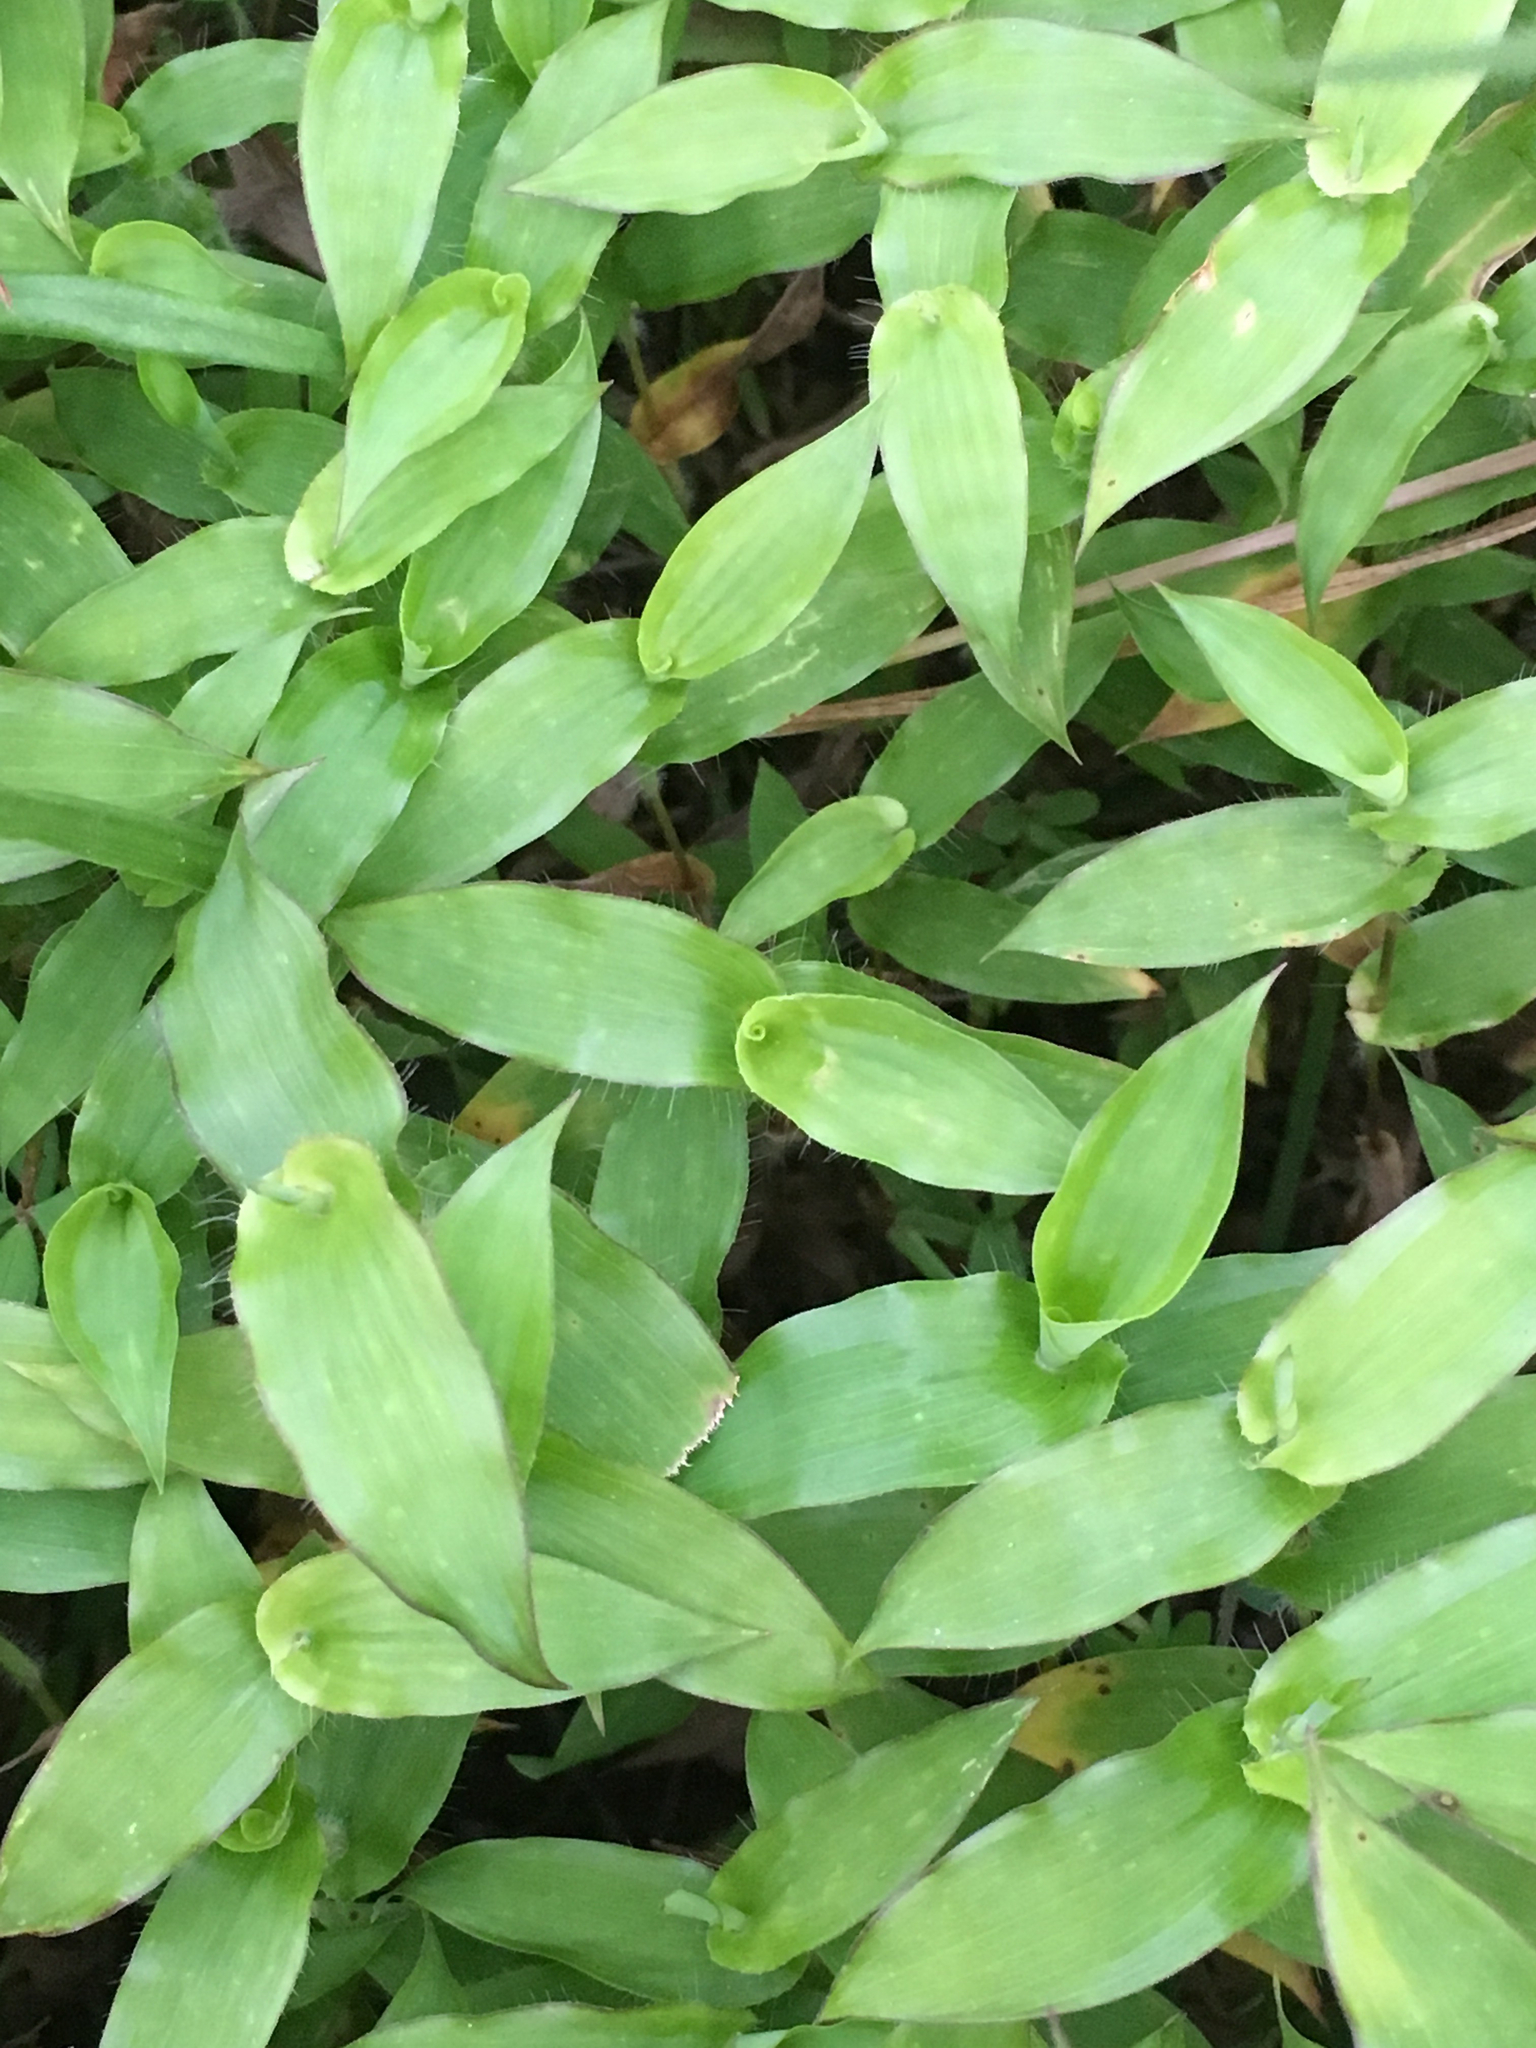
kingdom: Plantae
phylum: Tracheophyta
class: Liliopsida
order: Poales
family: Poaceae
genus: Arthraxon
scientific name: Arthraxon hispidus
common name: Small carpgrass
